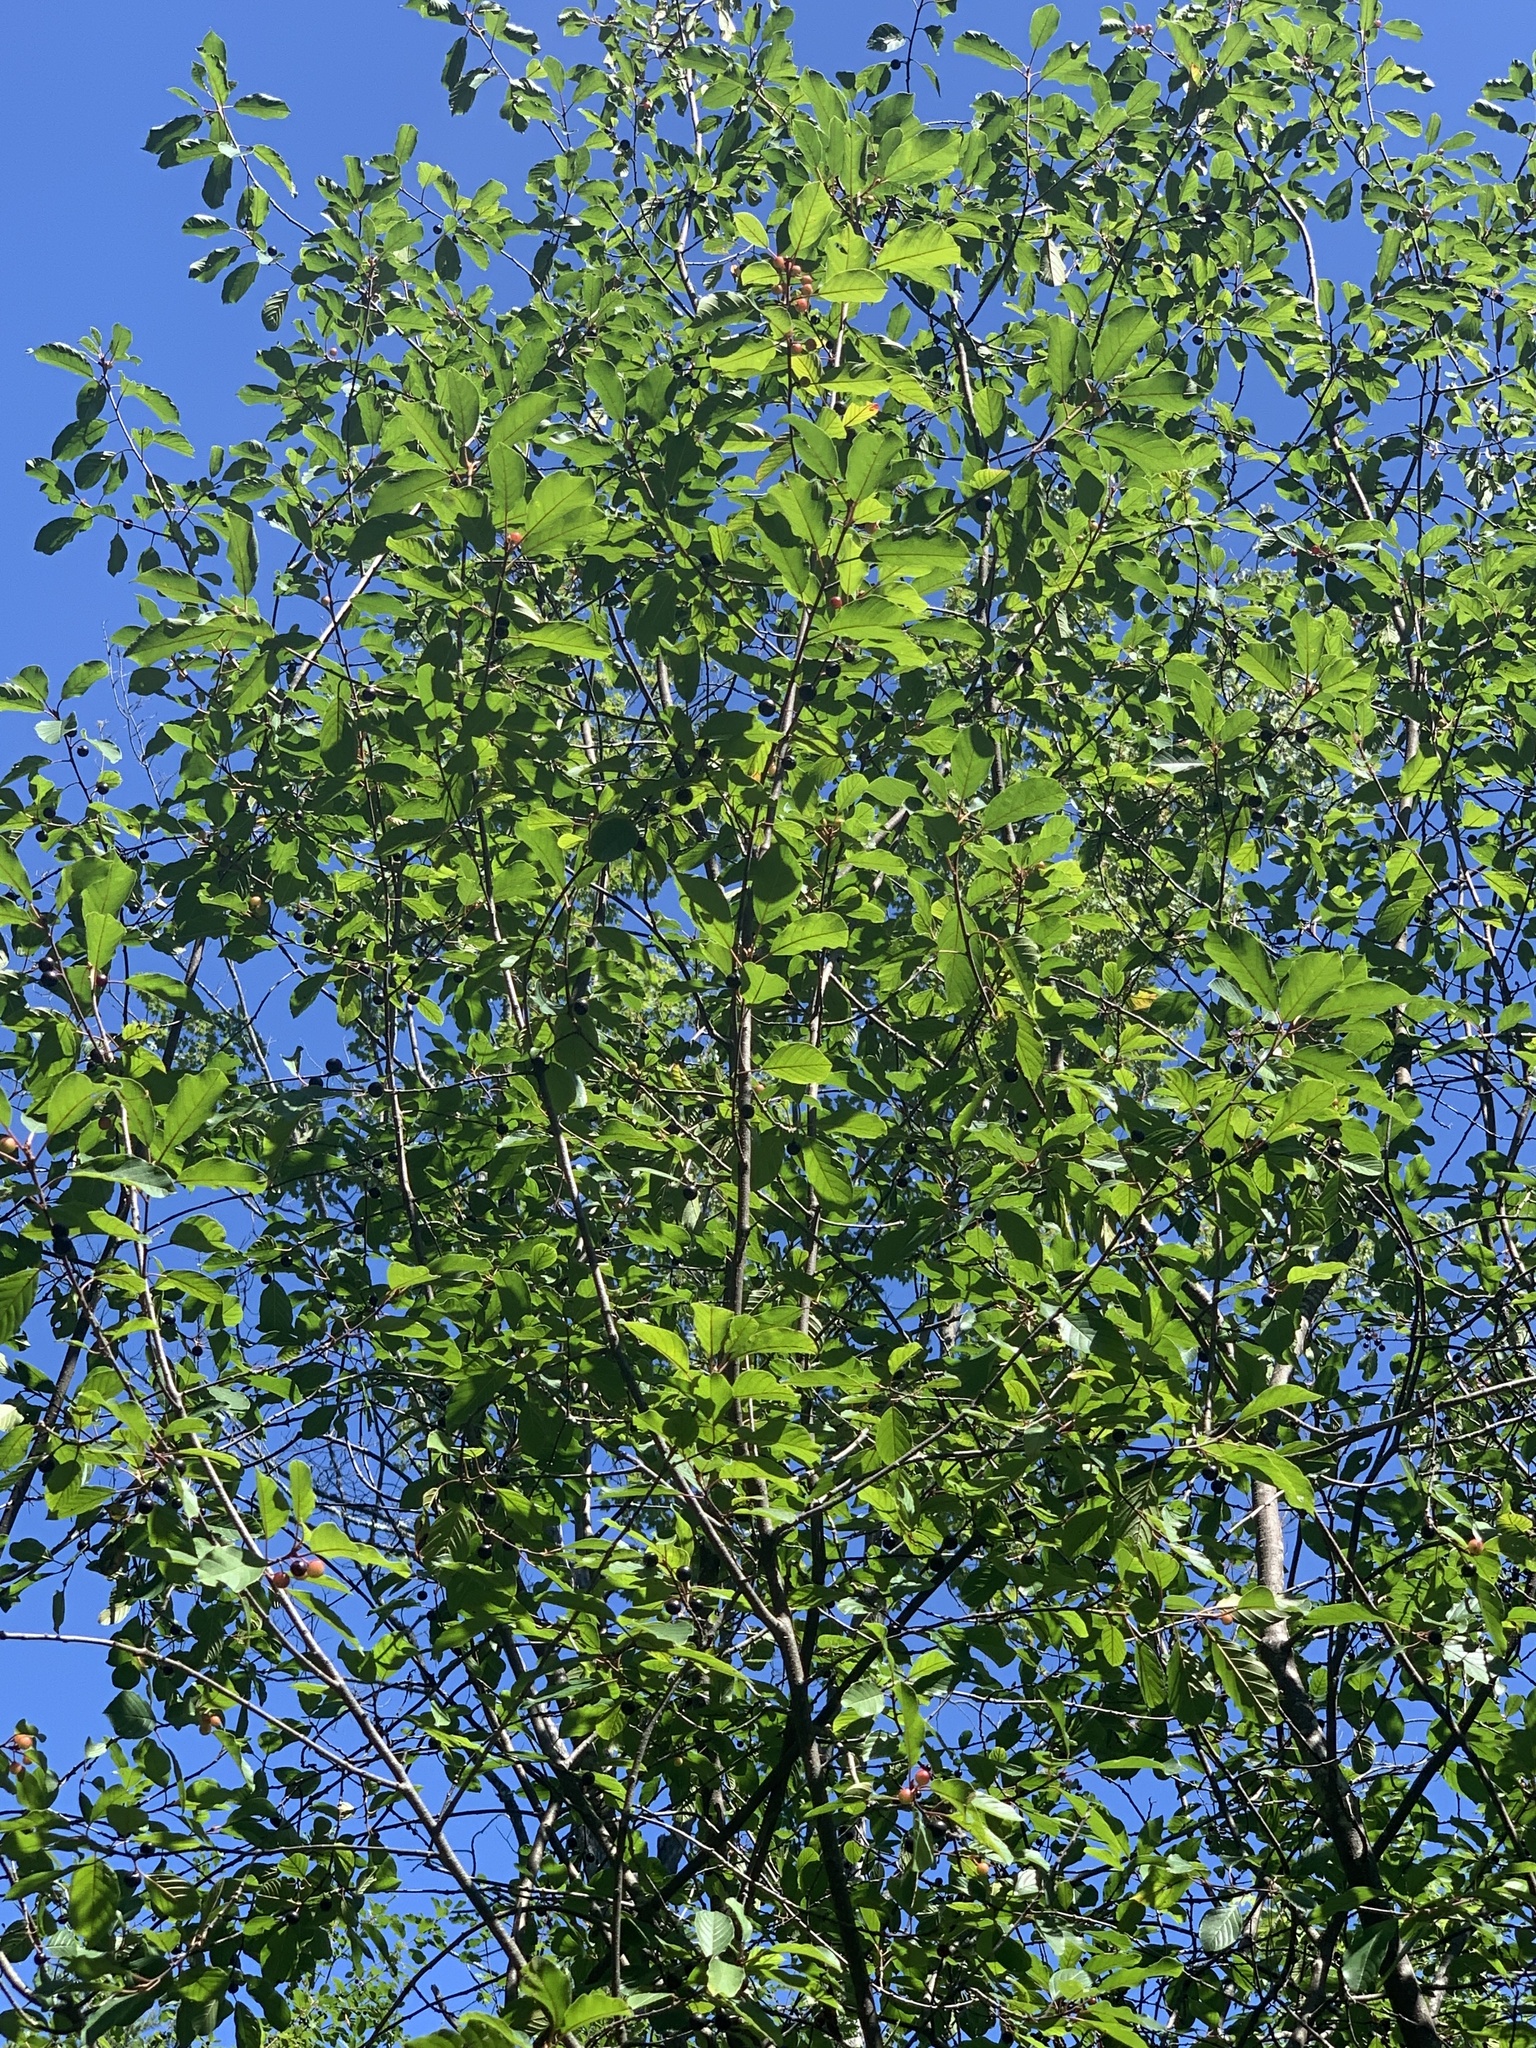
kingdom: Plantae
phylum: Tracheophyta
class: Magnoliopsida
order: Rosales
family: Rhamnaceae
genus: Frangula
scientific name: Frangula alnus
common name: Alder buckthorn
